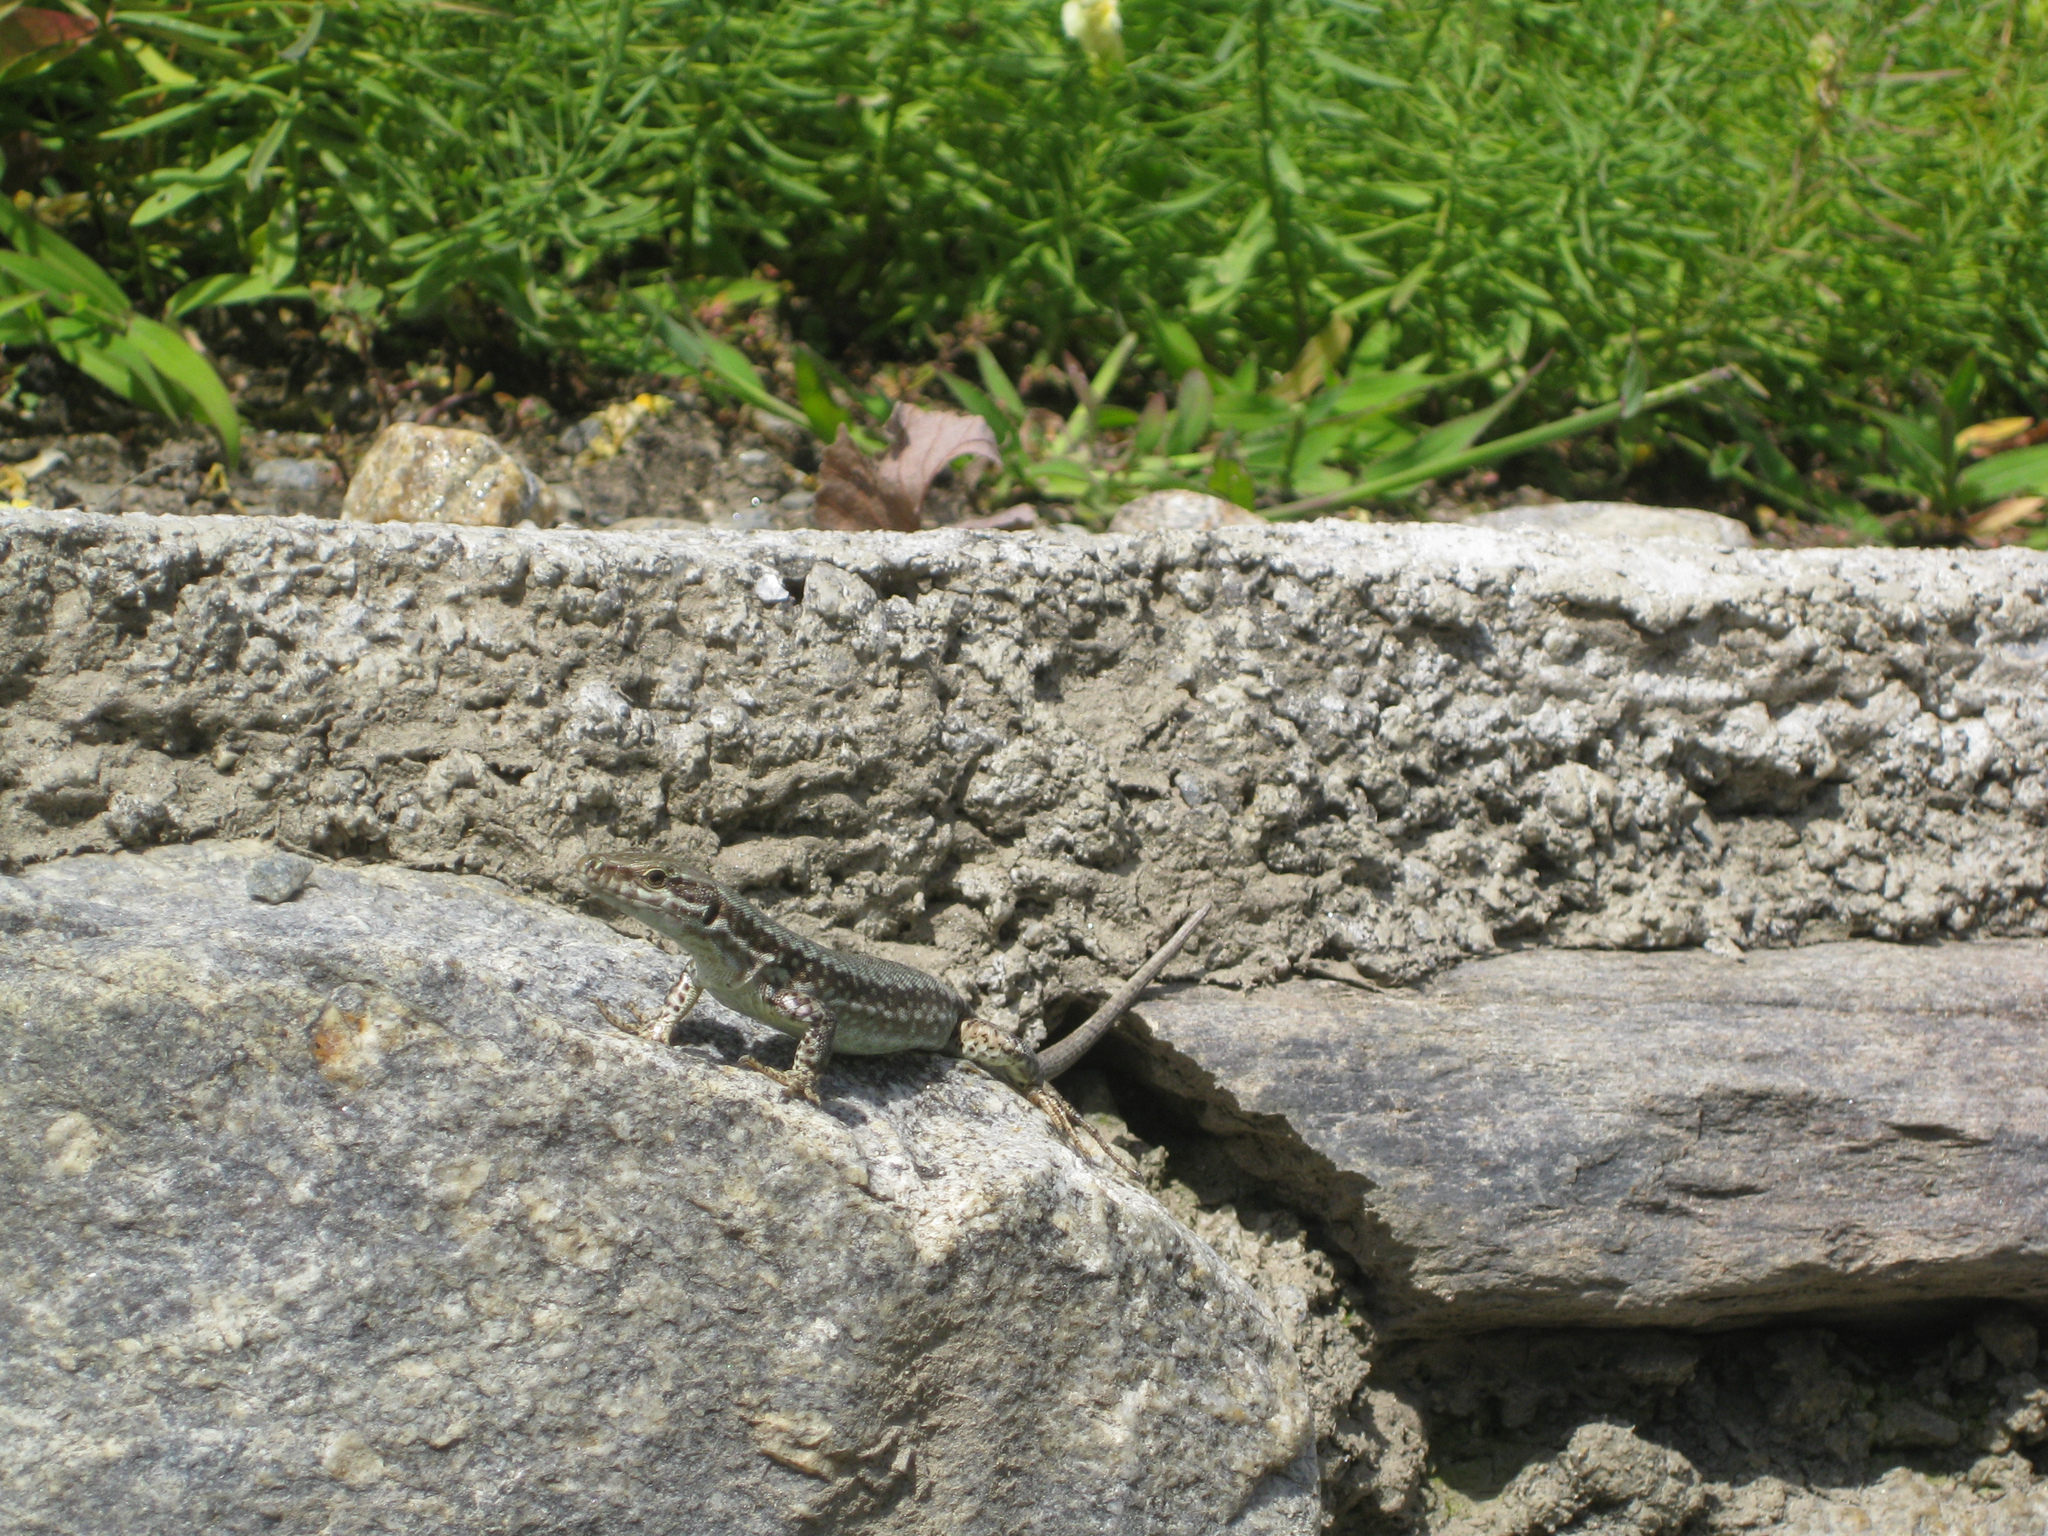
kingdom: Animalia
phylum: Chordata
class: Squamata
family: Lacertidae
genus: Podarcis
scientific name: Podarcis muralis
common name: Common wall lizard
